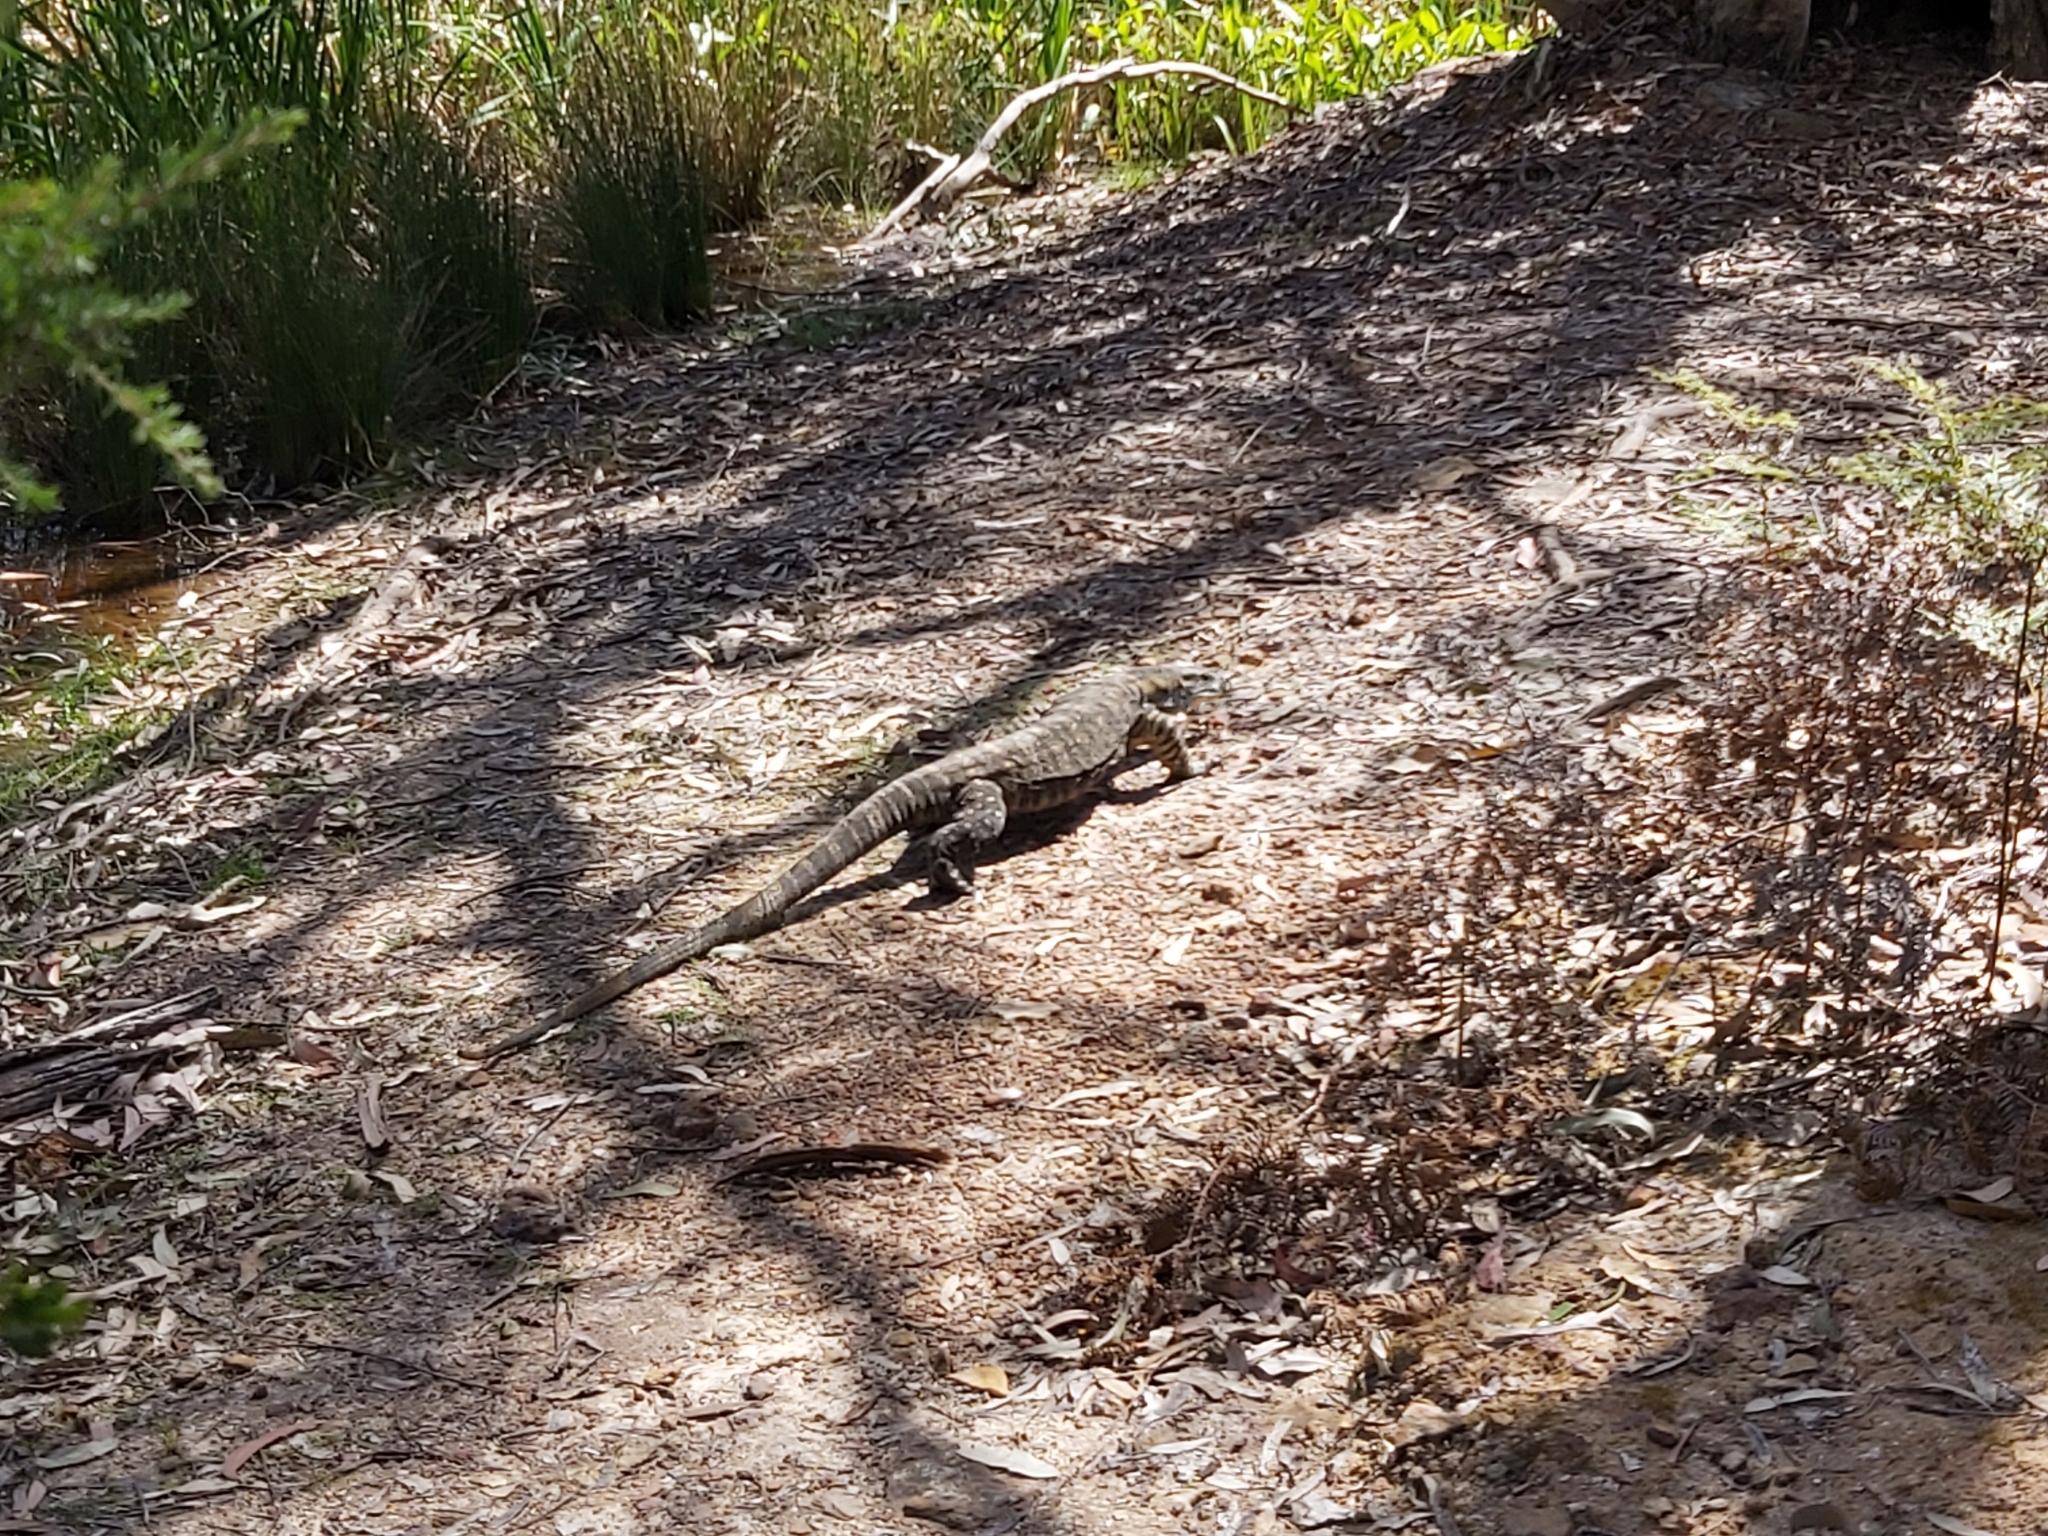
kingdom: Animalia
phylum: Chordata
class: Squamata
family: Varanidae
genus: Varanus
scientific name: Varanus varius
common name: Lace monitor
